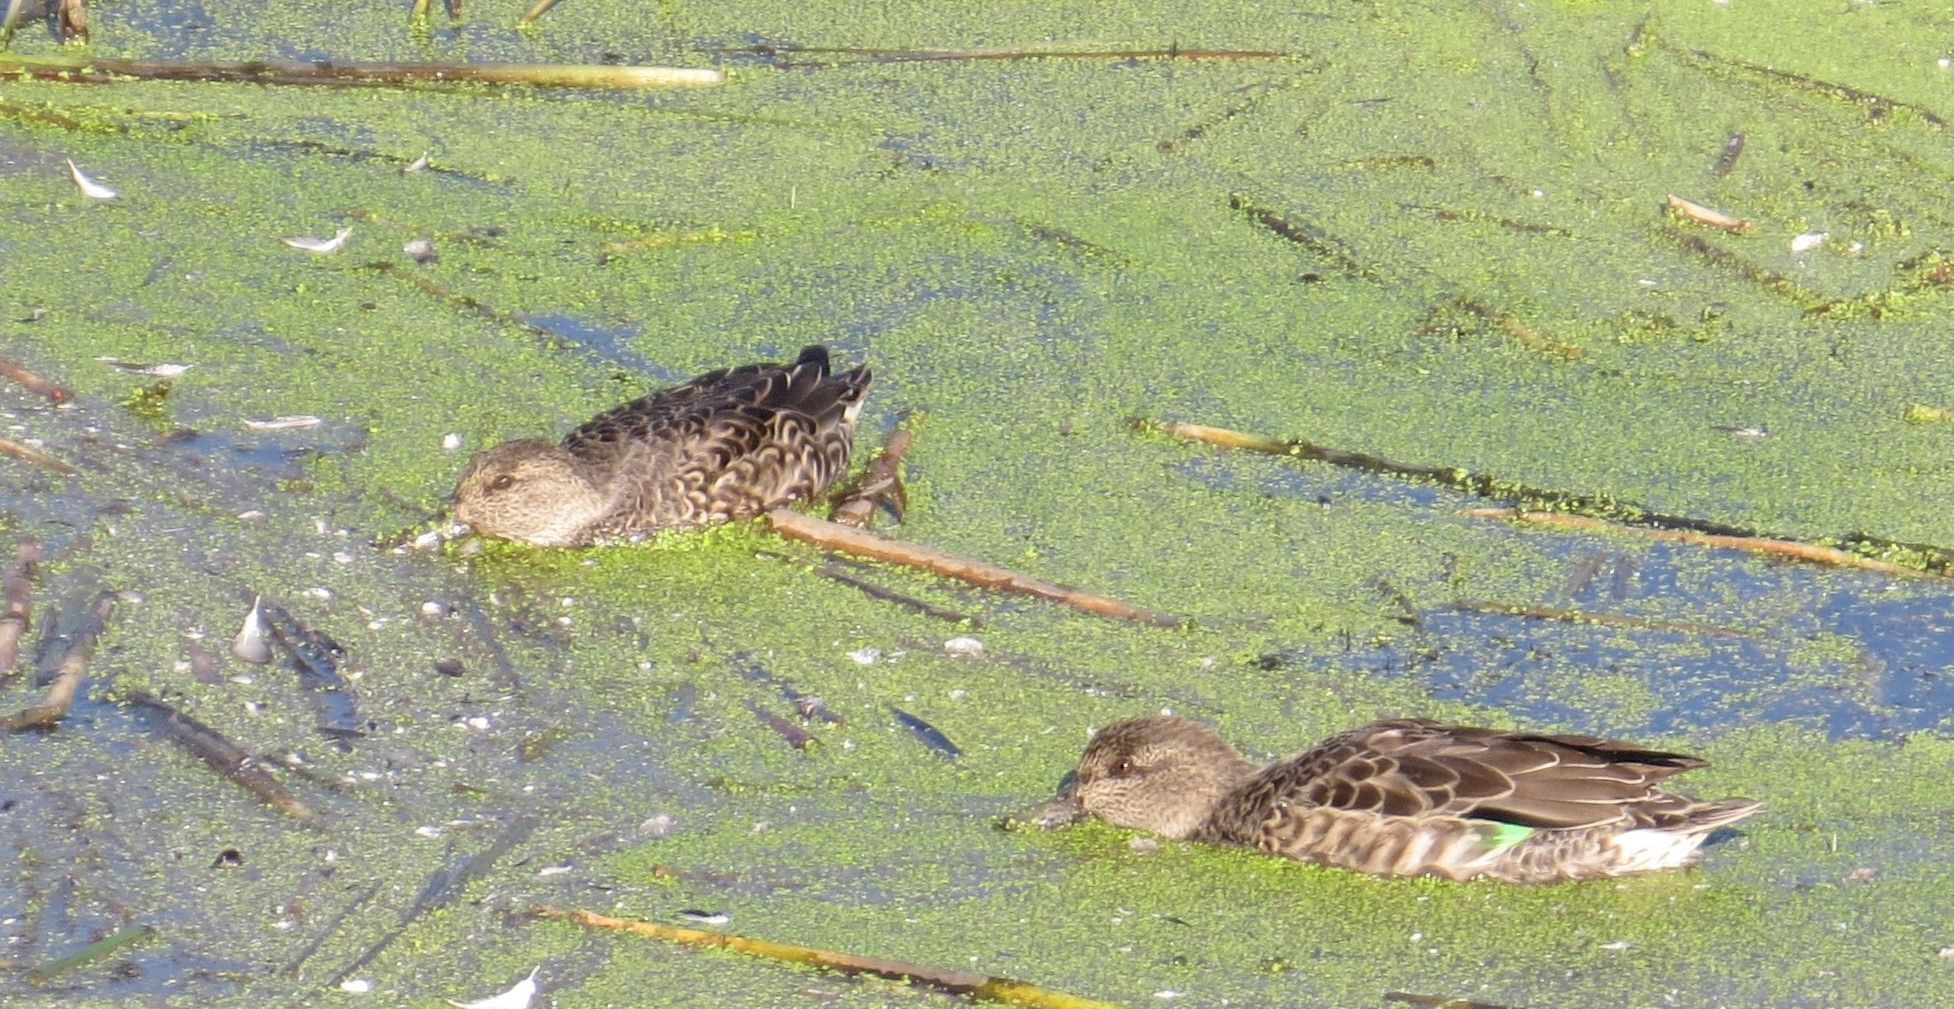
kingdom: Animalia
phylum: Chordata
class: Aves
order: Anseriformes
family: Anatidae
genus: Anas
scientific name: Anas crecca
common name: Eurasian teal
